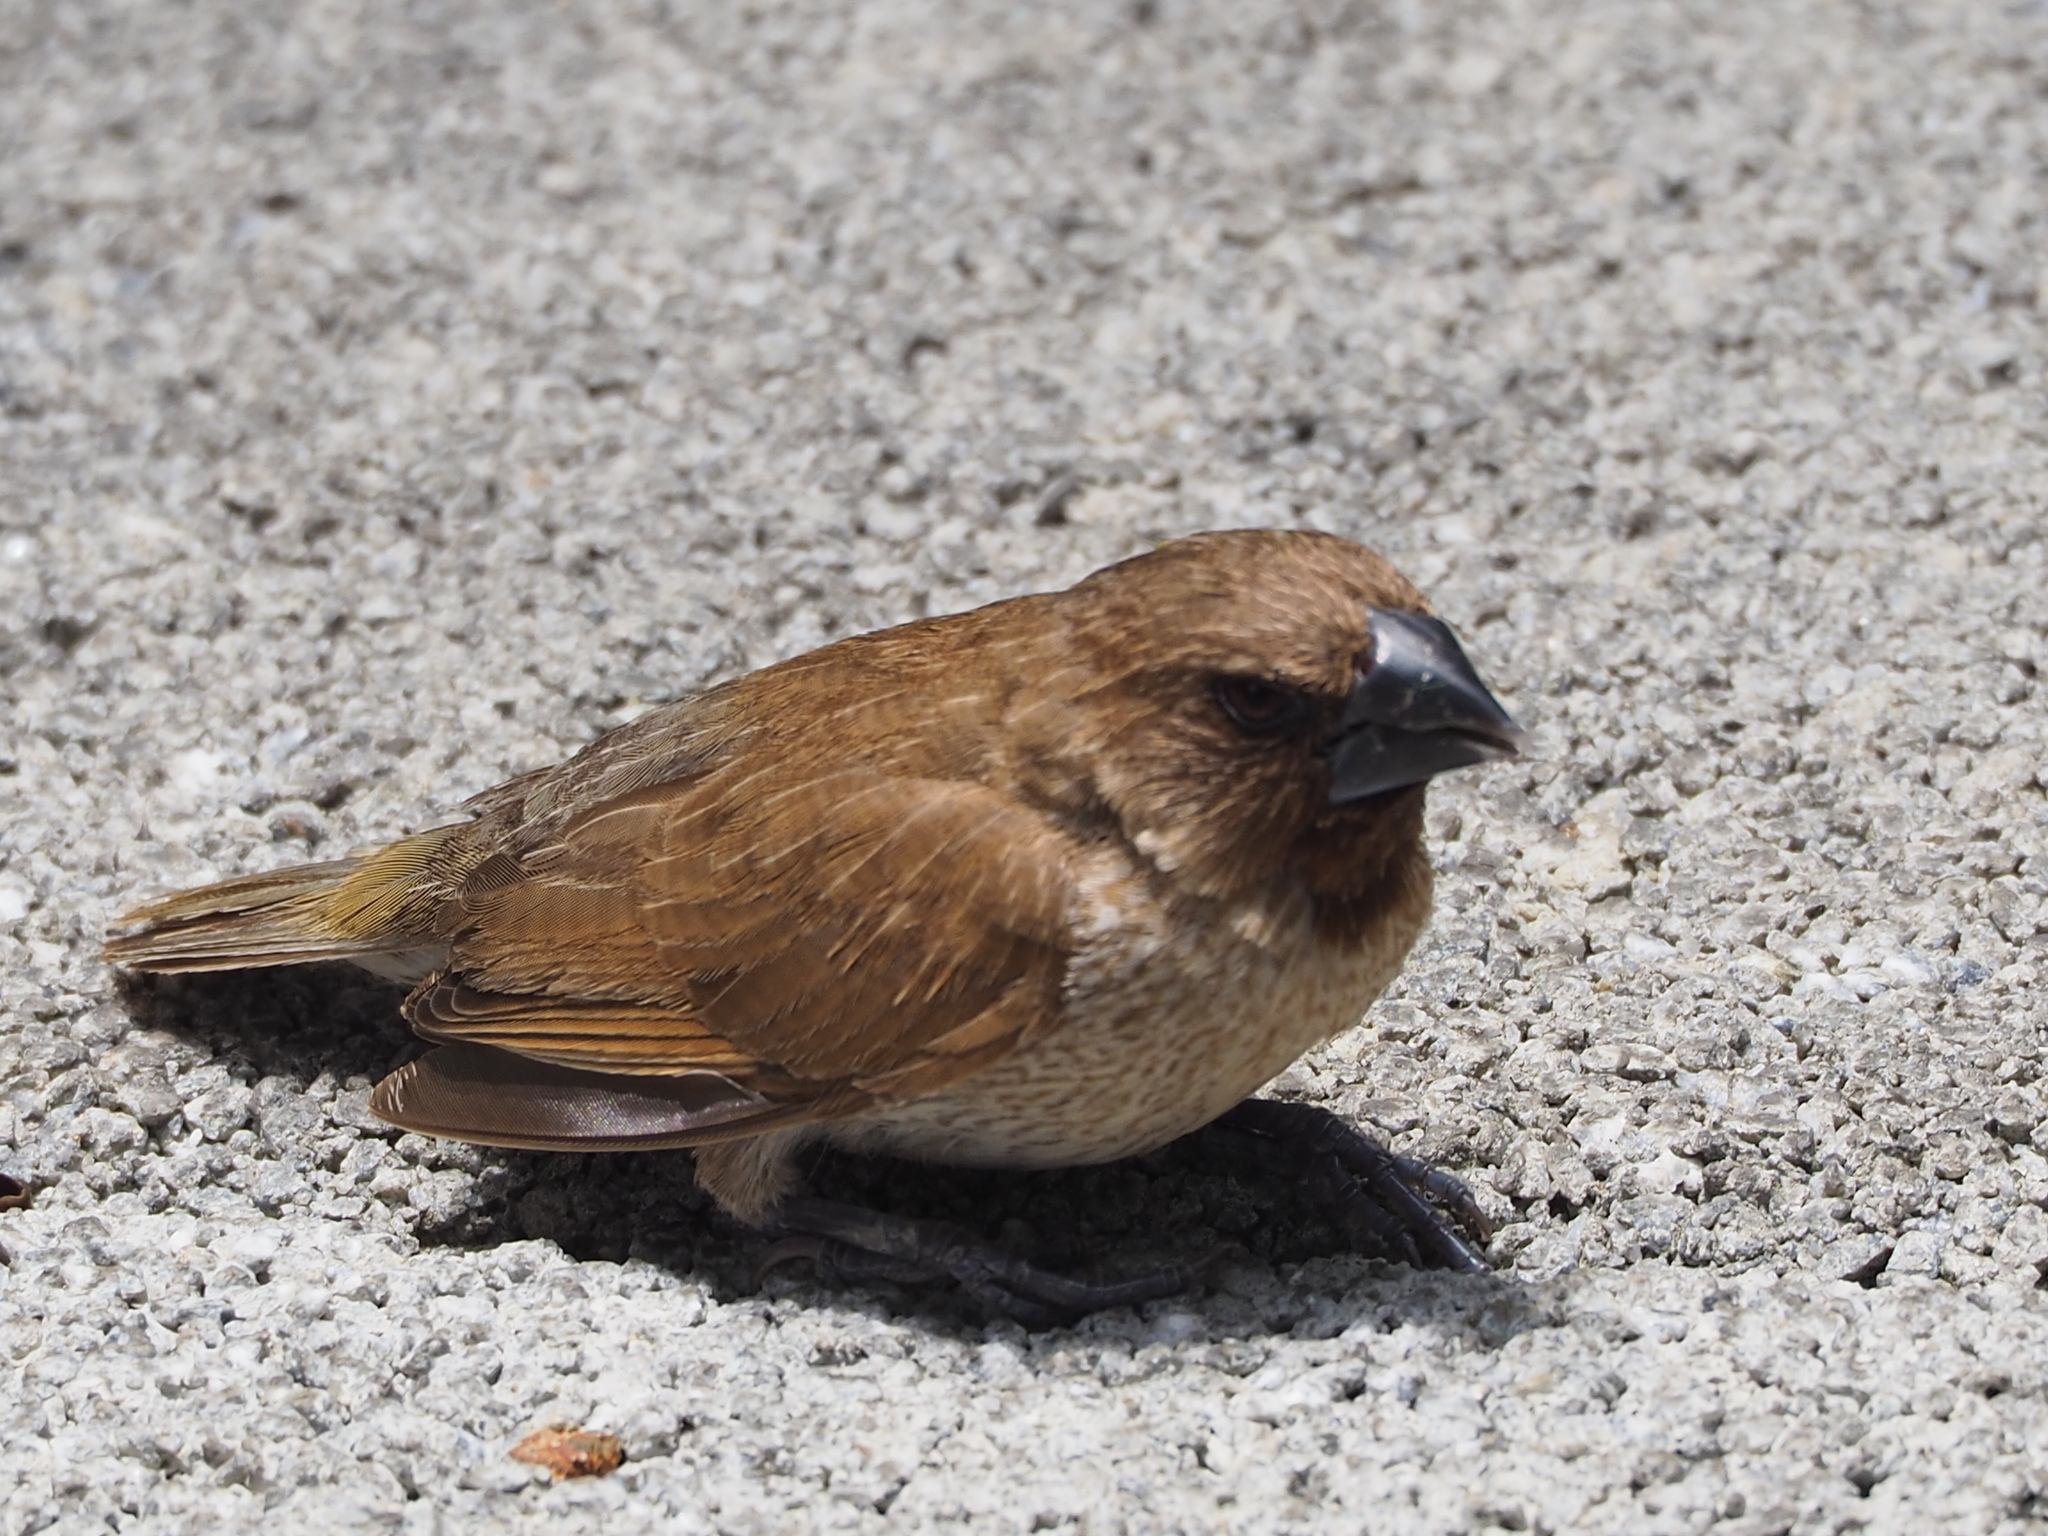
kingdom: Animalia
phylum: Chordata
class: Aves
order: Passeriformes
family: Estrildidae
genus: Lonchura
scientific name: Lonchura punctulata
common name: Scaly-breasted munia
